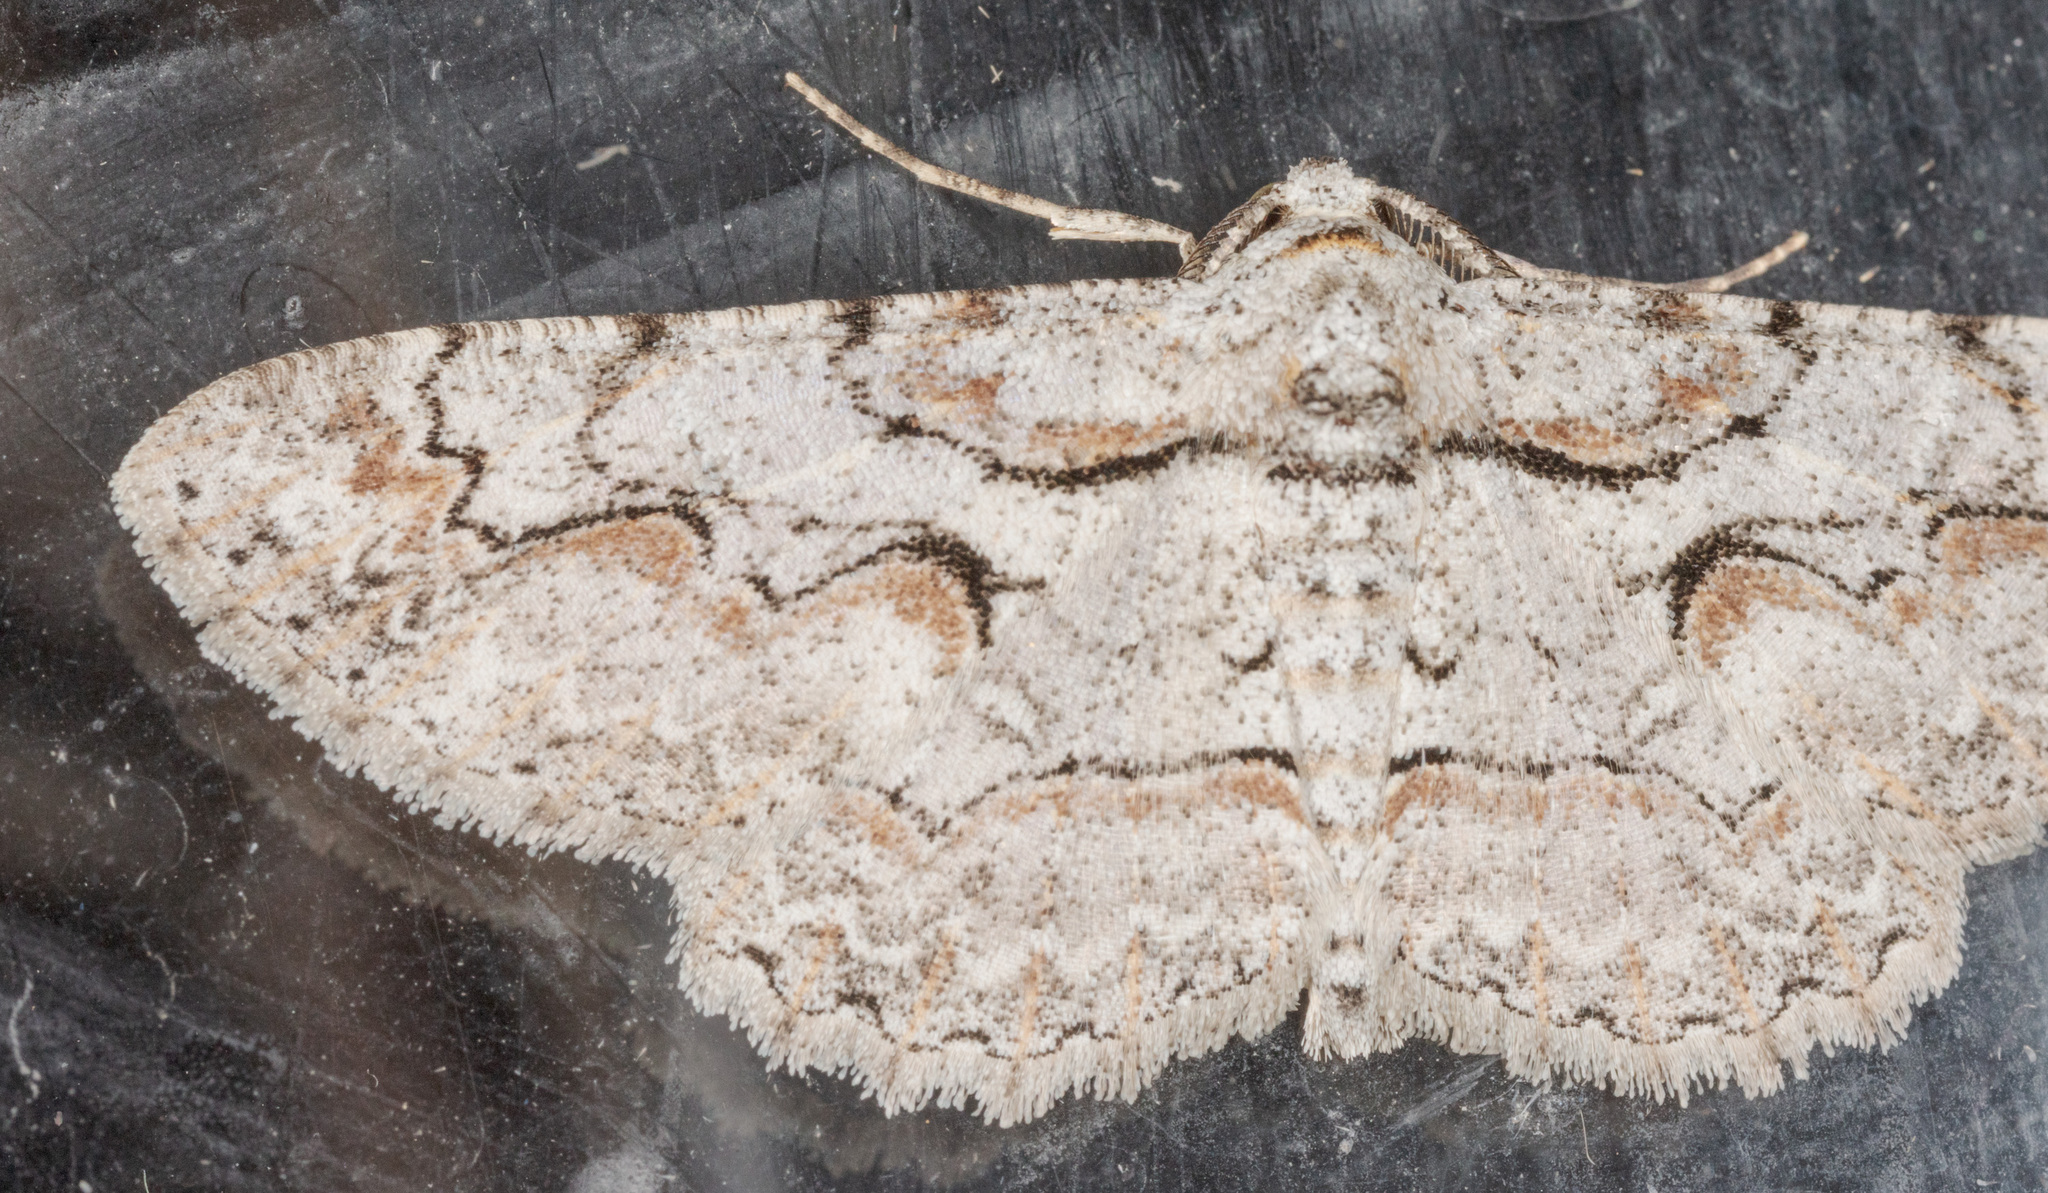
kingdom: Animalia
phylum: Arthropoda
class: Insecta
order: Lepidoptera
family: Geometridae
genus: Iridopsis
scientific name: Iridopsis defectaria
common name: Brown-shaded gray
